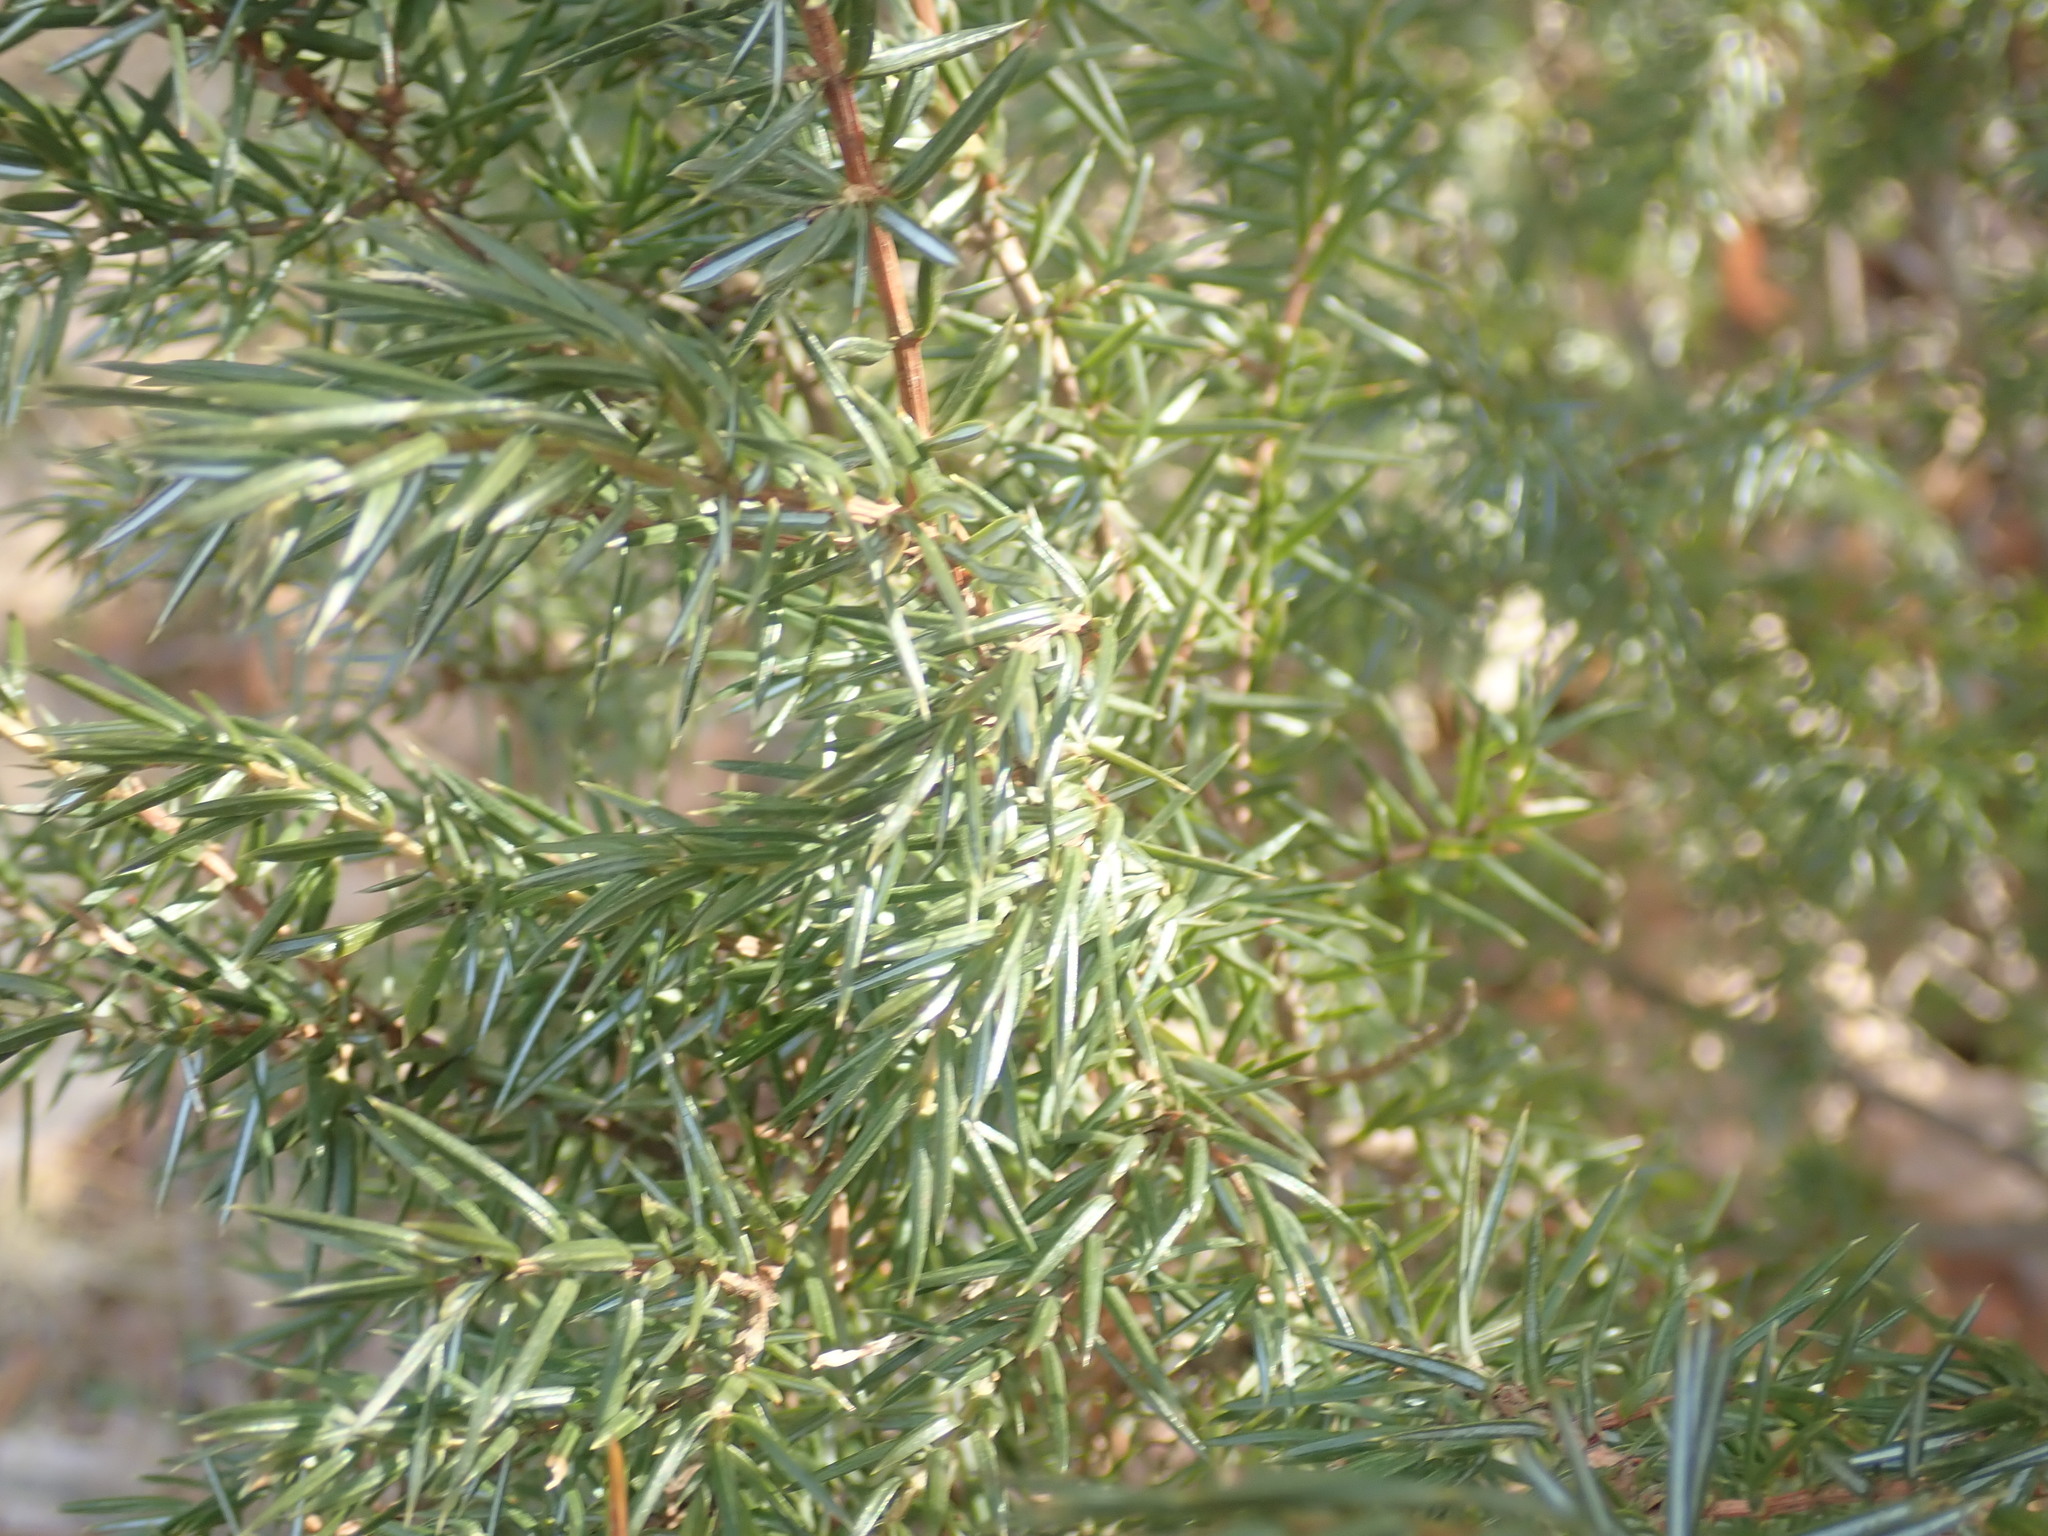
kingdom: Plantae
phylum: Tracheophyta
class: Pinopsida
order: Pinales
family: Cupressaceae
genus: Juniperus
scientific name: Juniperus communis
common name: Common juniper
